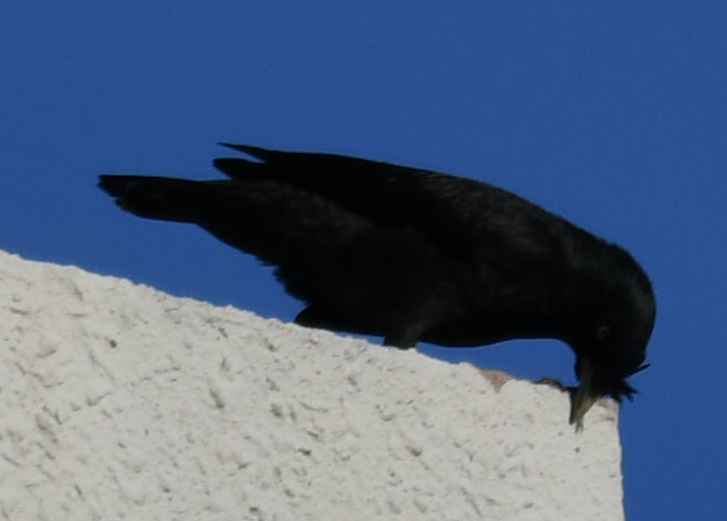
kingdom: Animalia
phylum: Chordata
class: Aves
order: Passeriformes
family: Sturnidae
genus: Acridotheres
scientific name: Acridotheres cristatellus
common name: Crested myna
